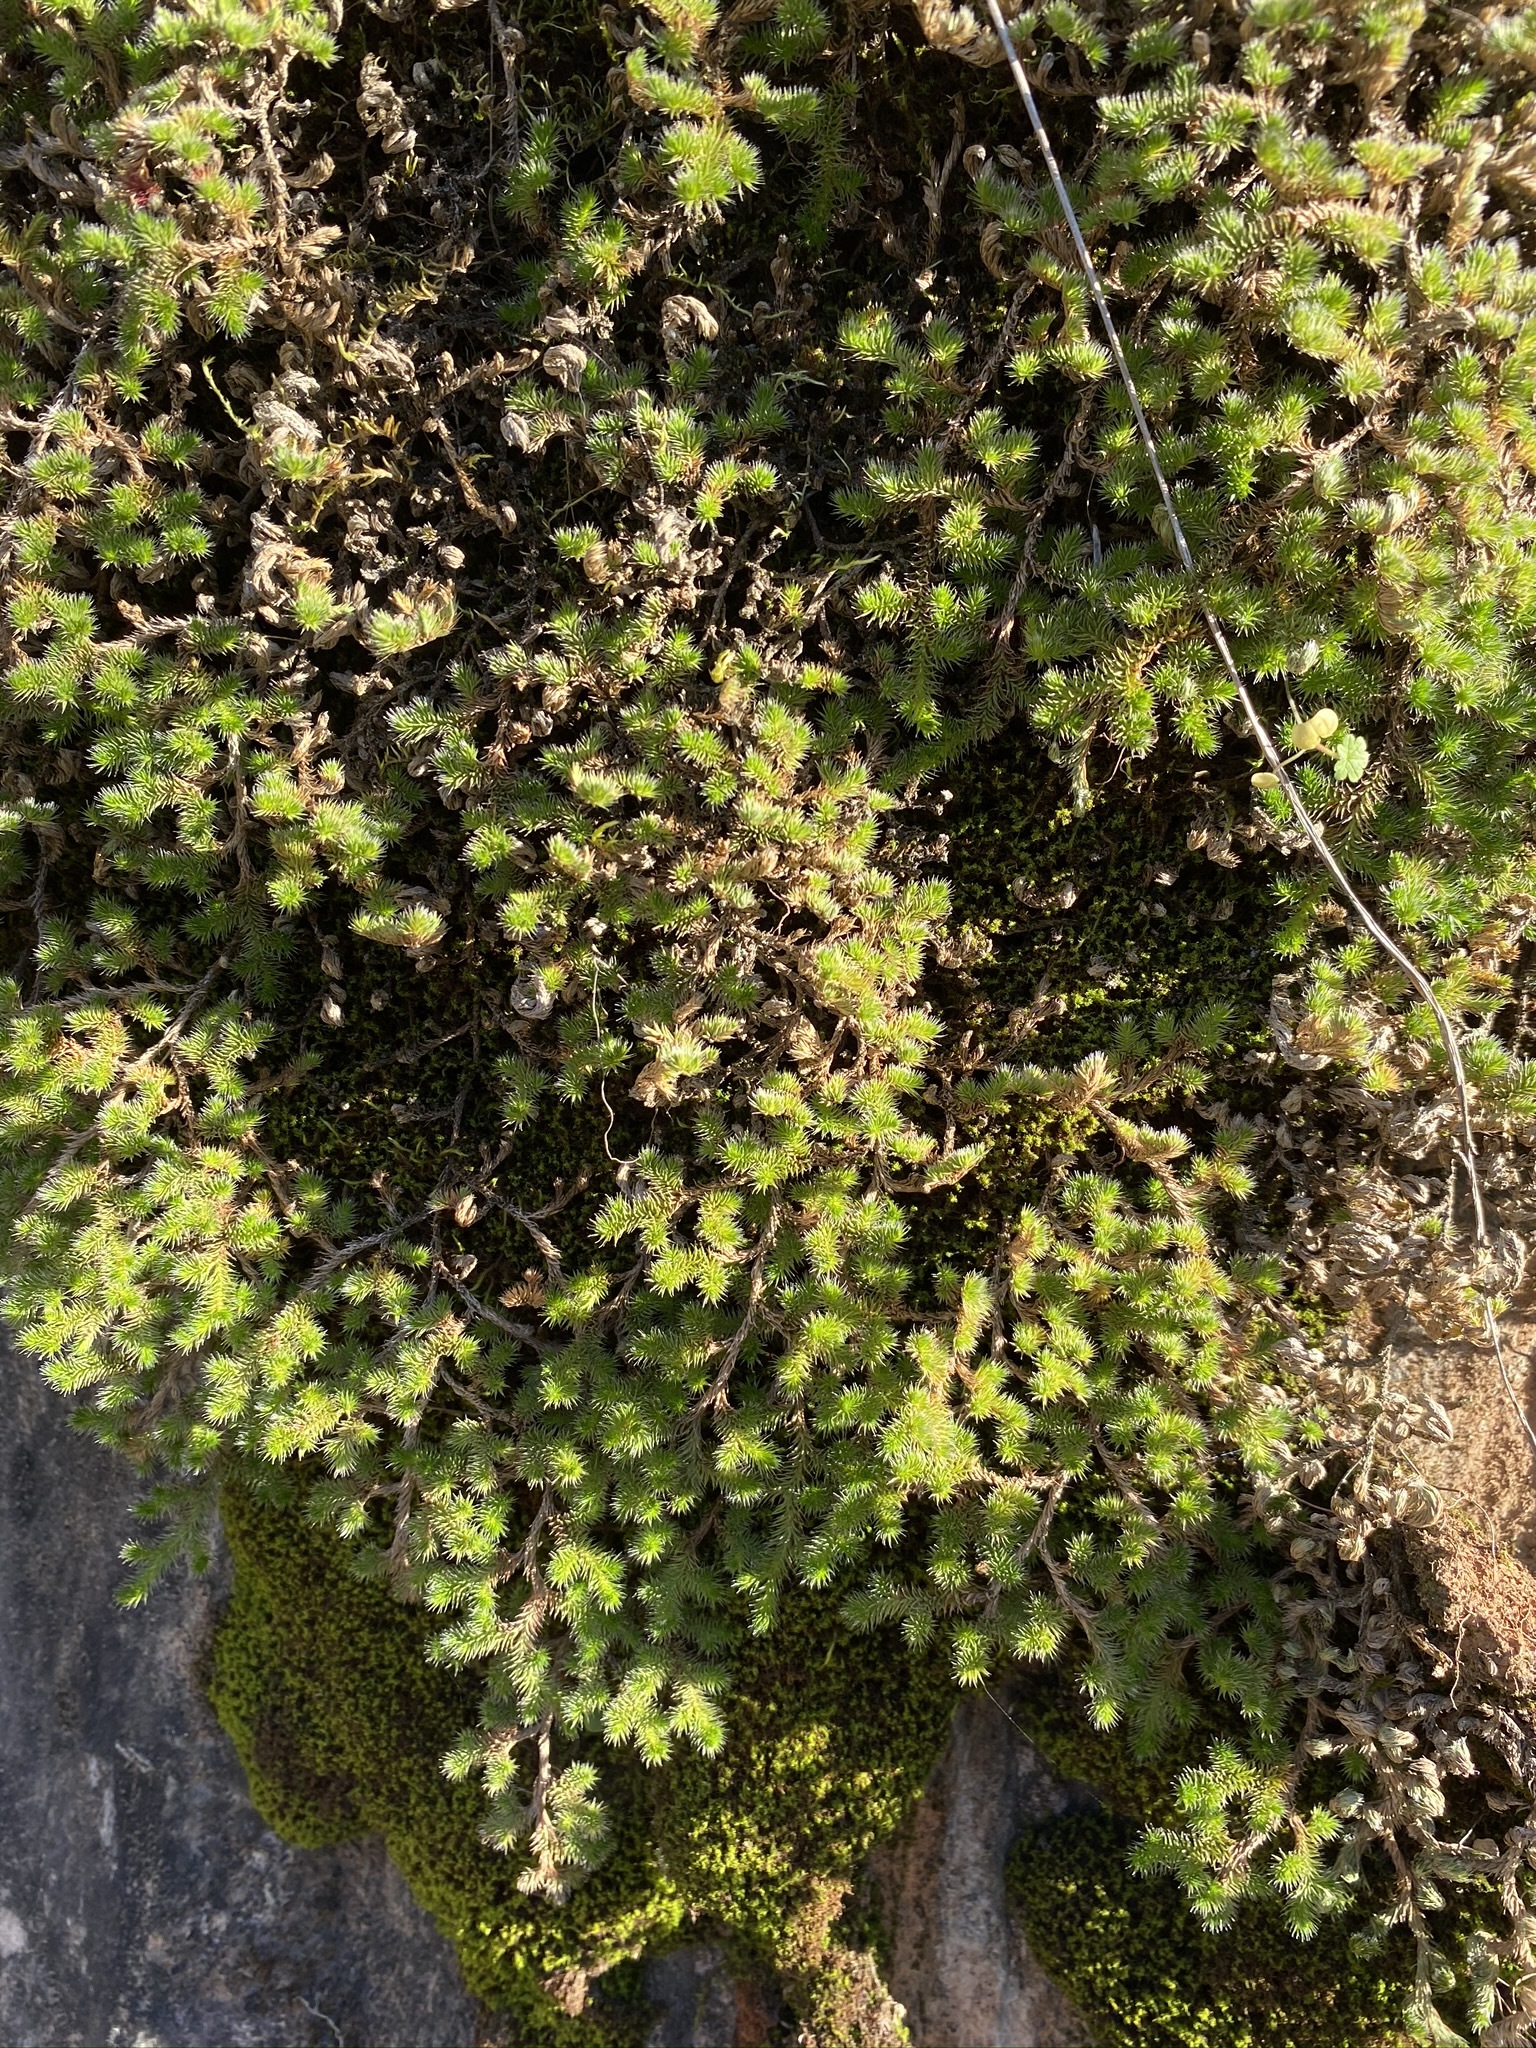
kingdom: Plantae
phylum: Tracheophyta
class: Lycopodiopsida
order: Selaginellales
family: Selaginellaceae
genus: Selaginella
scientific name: Selaginella hansenii
